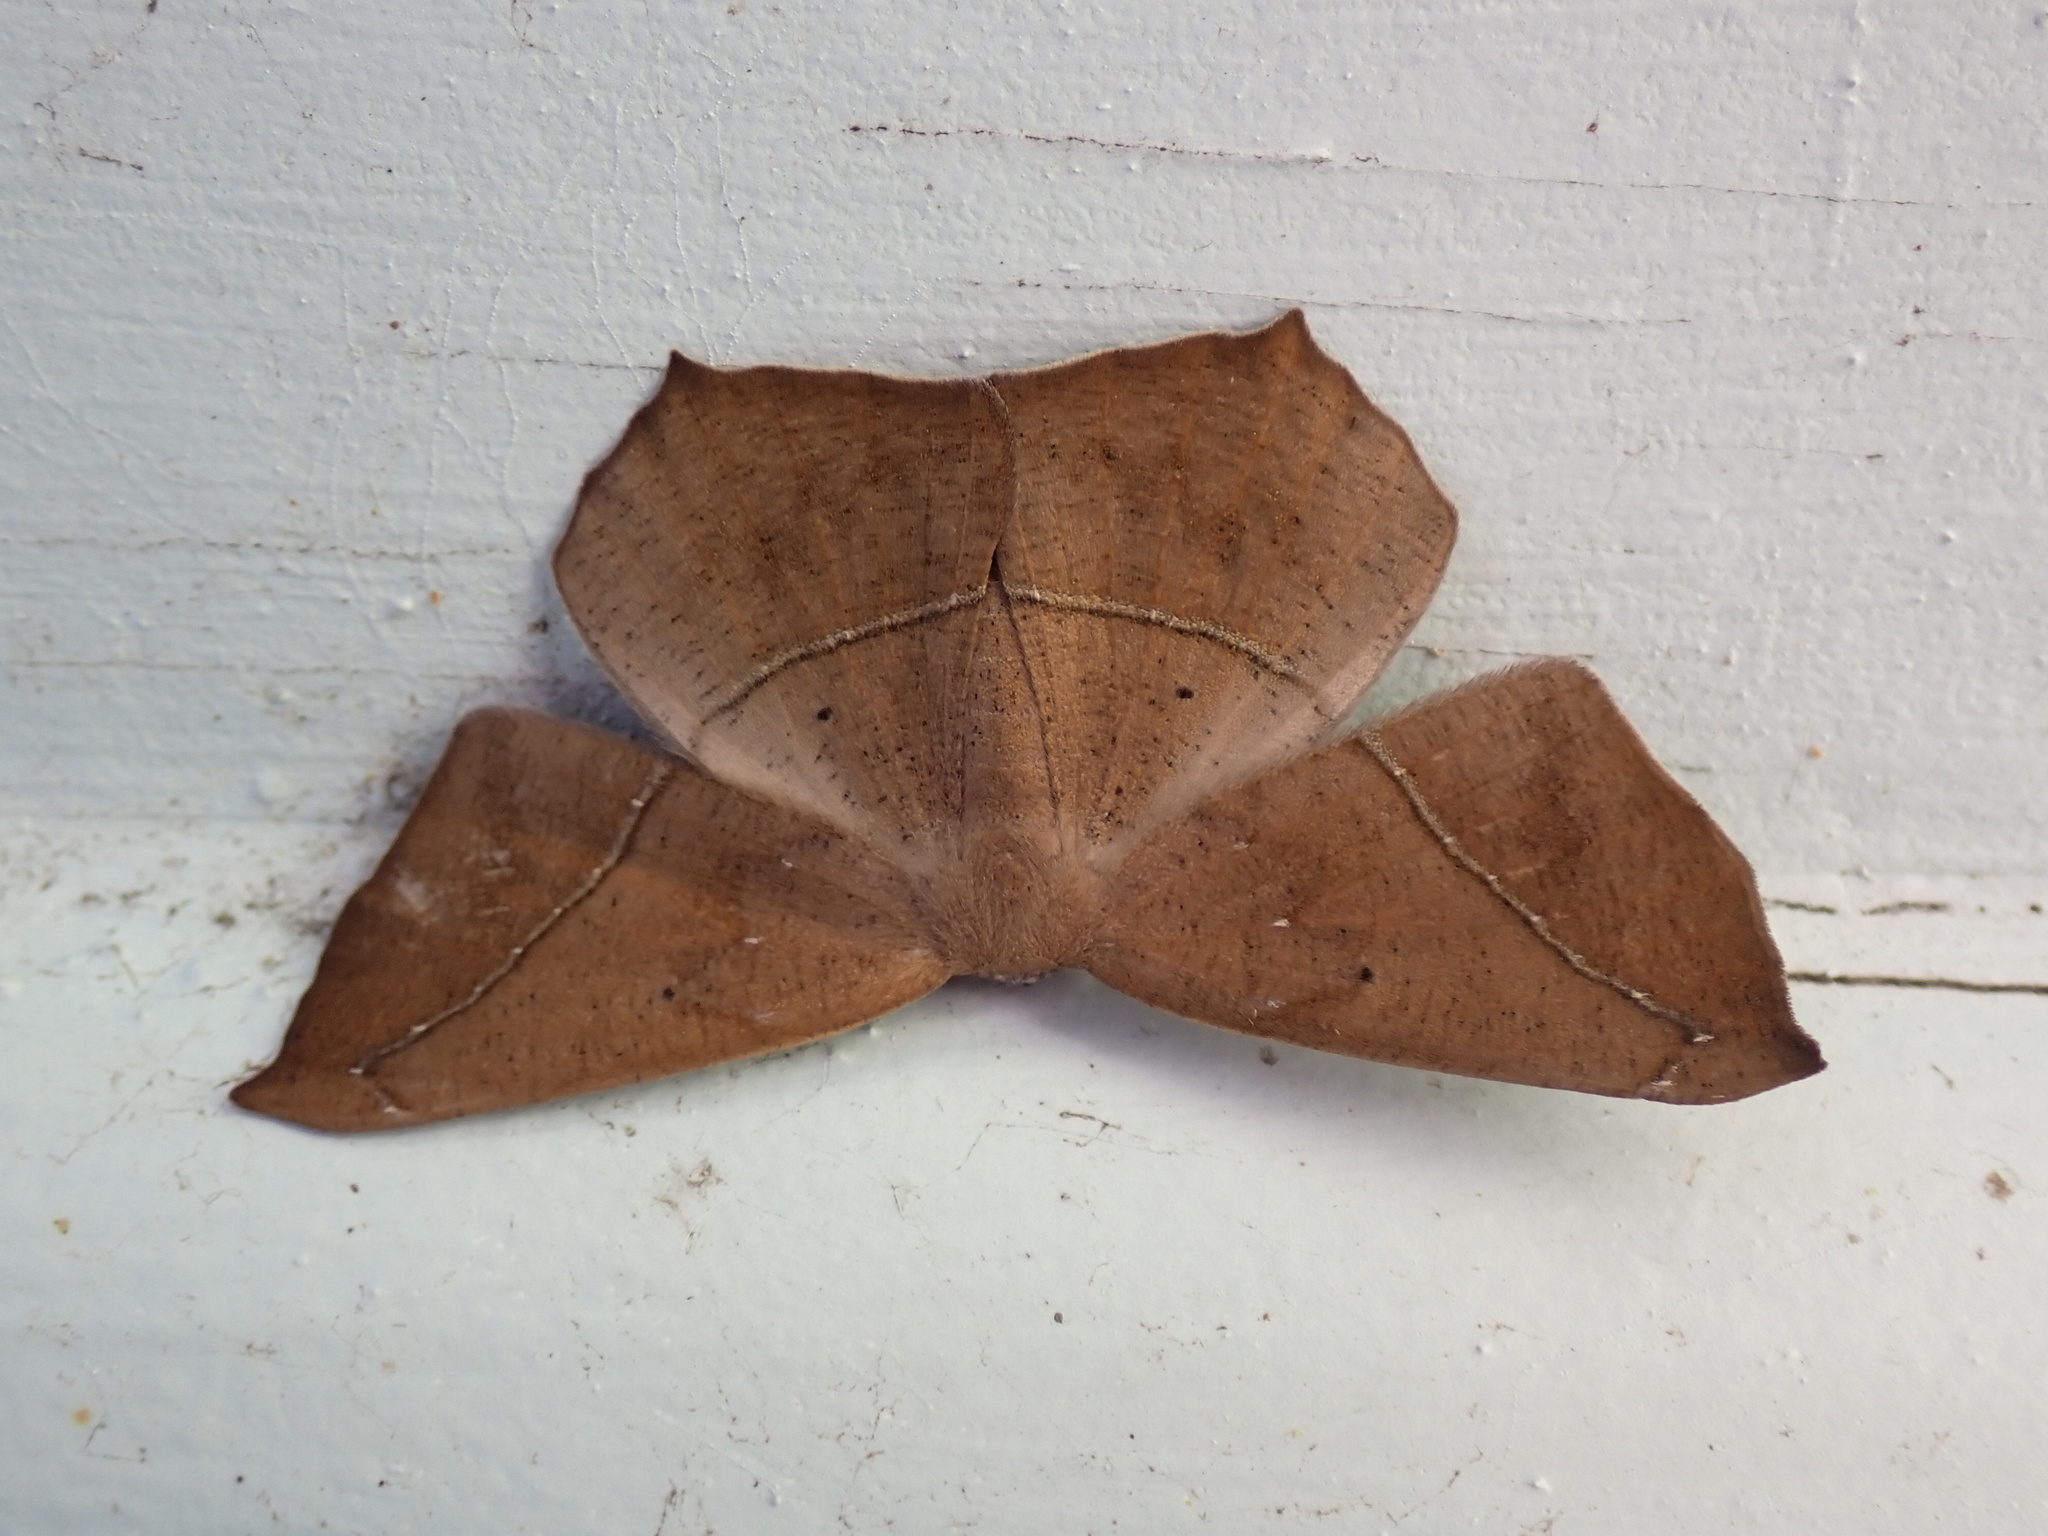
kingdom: Animalia
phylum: Arthropoda
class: Insecta
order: Lepidoptera
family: Geometridae
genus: Prochoerodes
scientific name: Prochoerodes lineola
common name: Large maple spanworm
